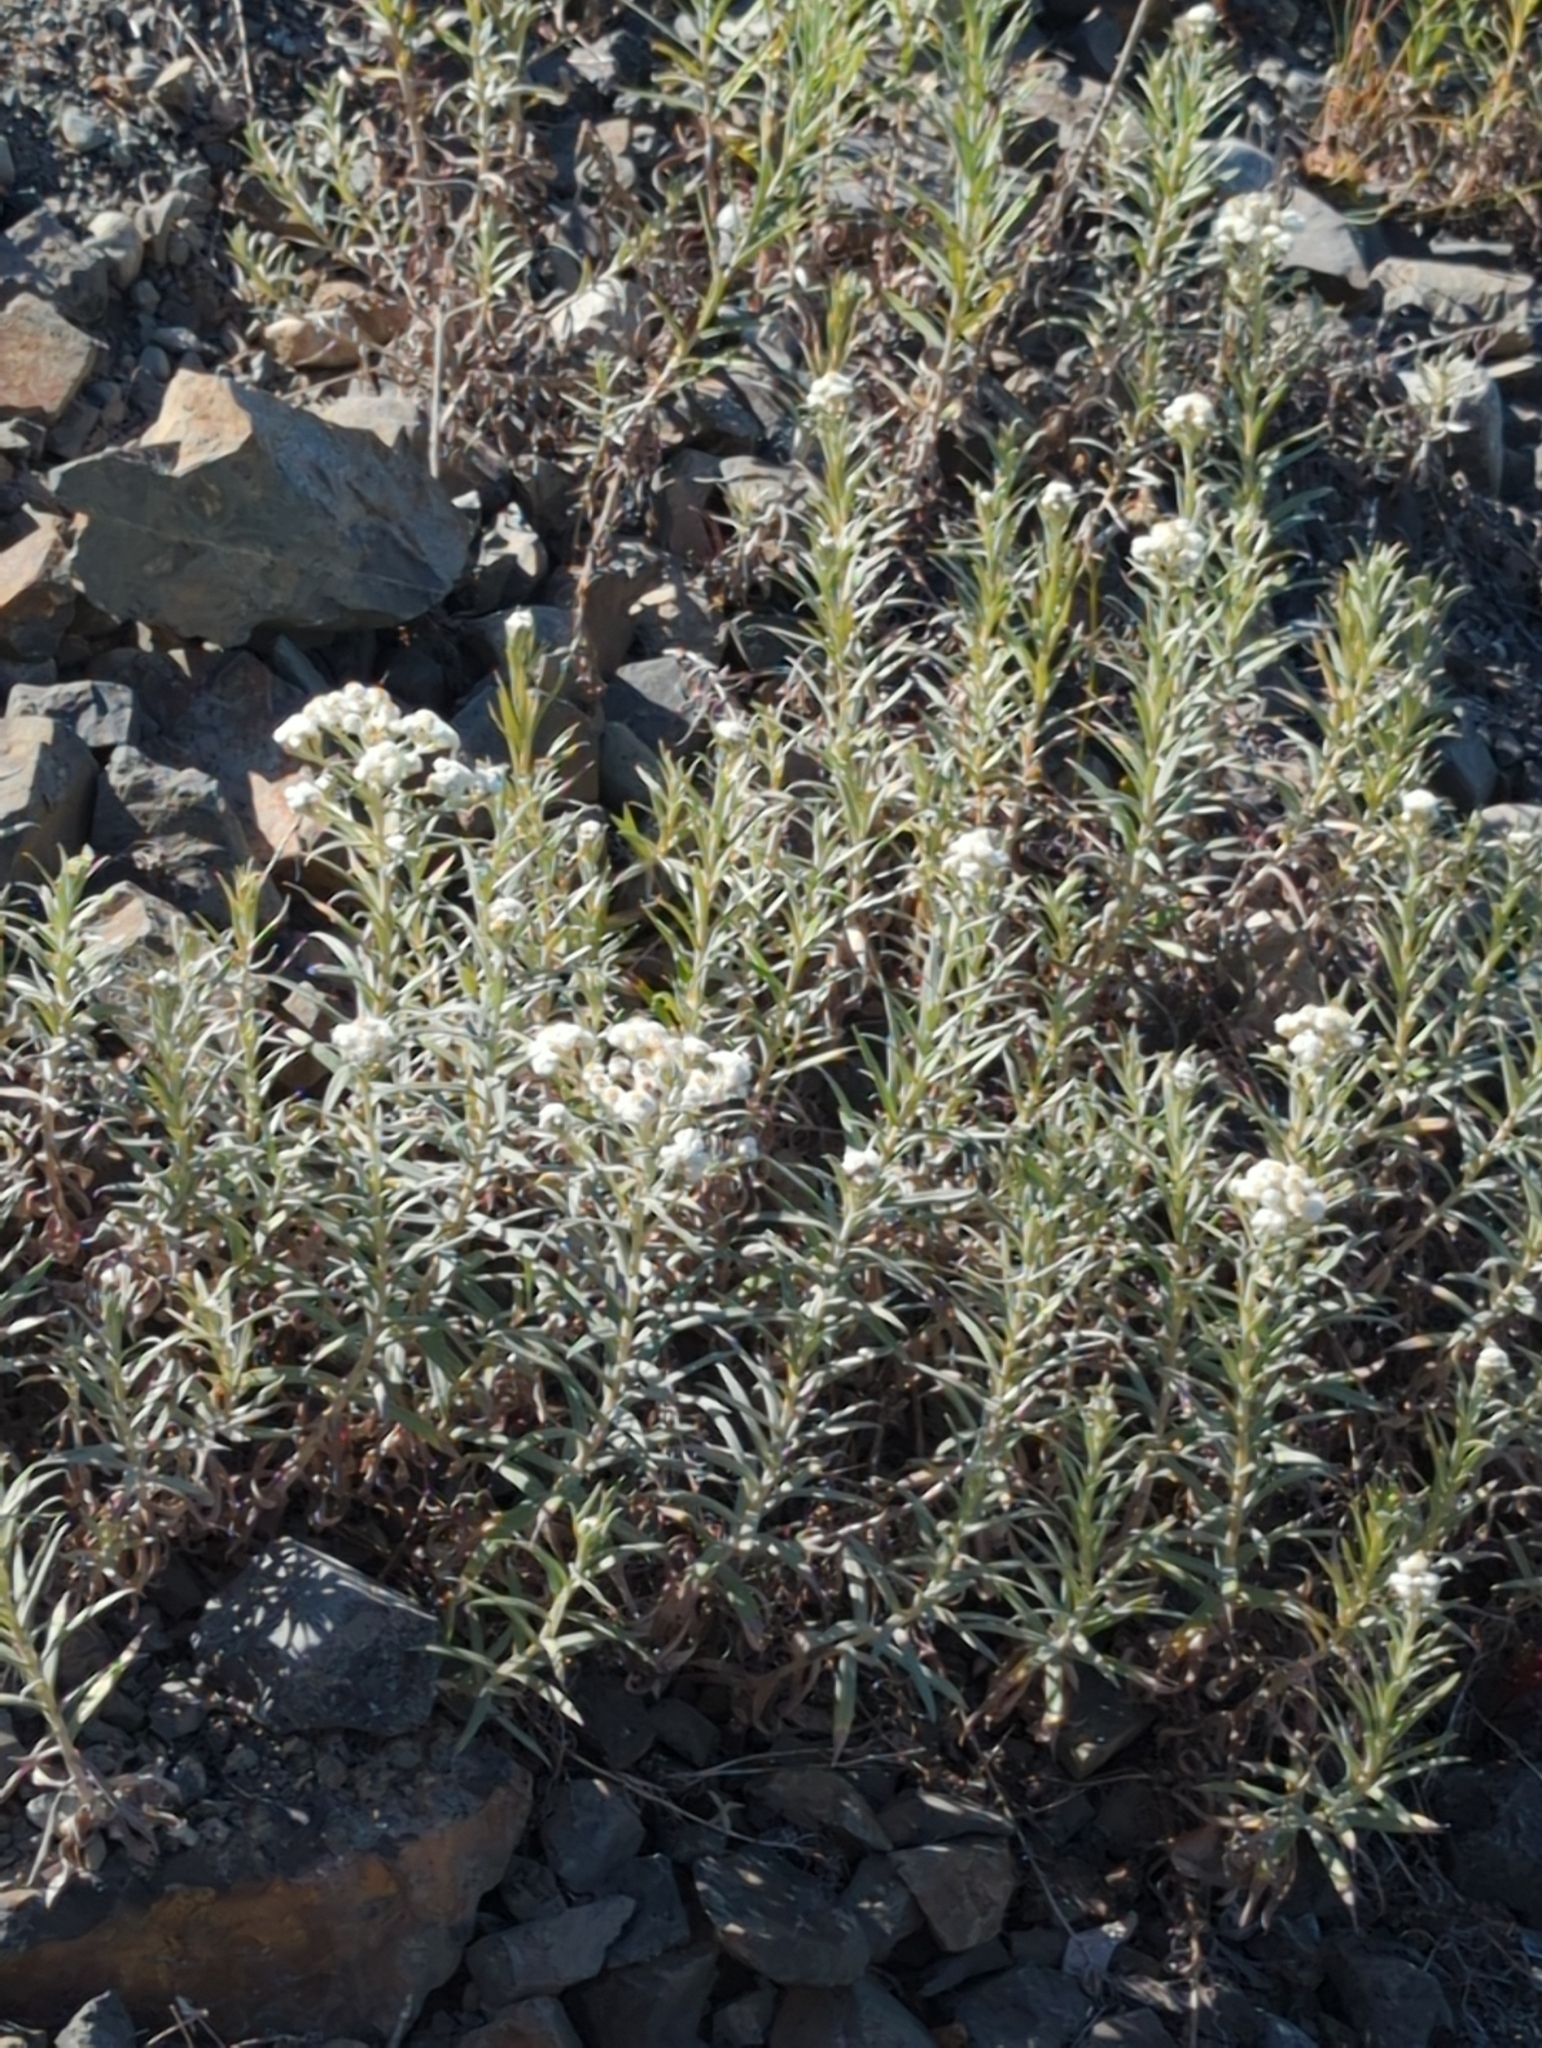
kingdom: Plantae
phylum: Tracheophyta
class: Magnoliopsida
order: Asterales
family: Asteraceae
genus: Anaphalis
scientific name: Anaphalis margaritacea
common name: Pearly everlasting
